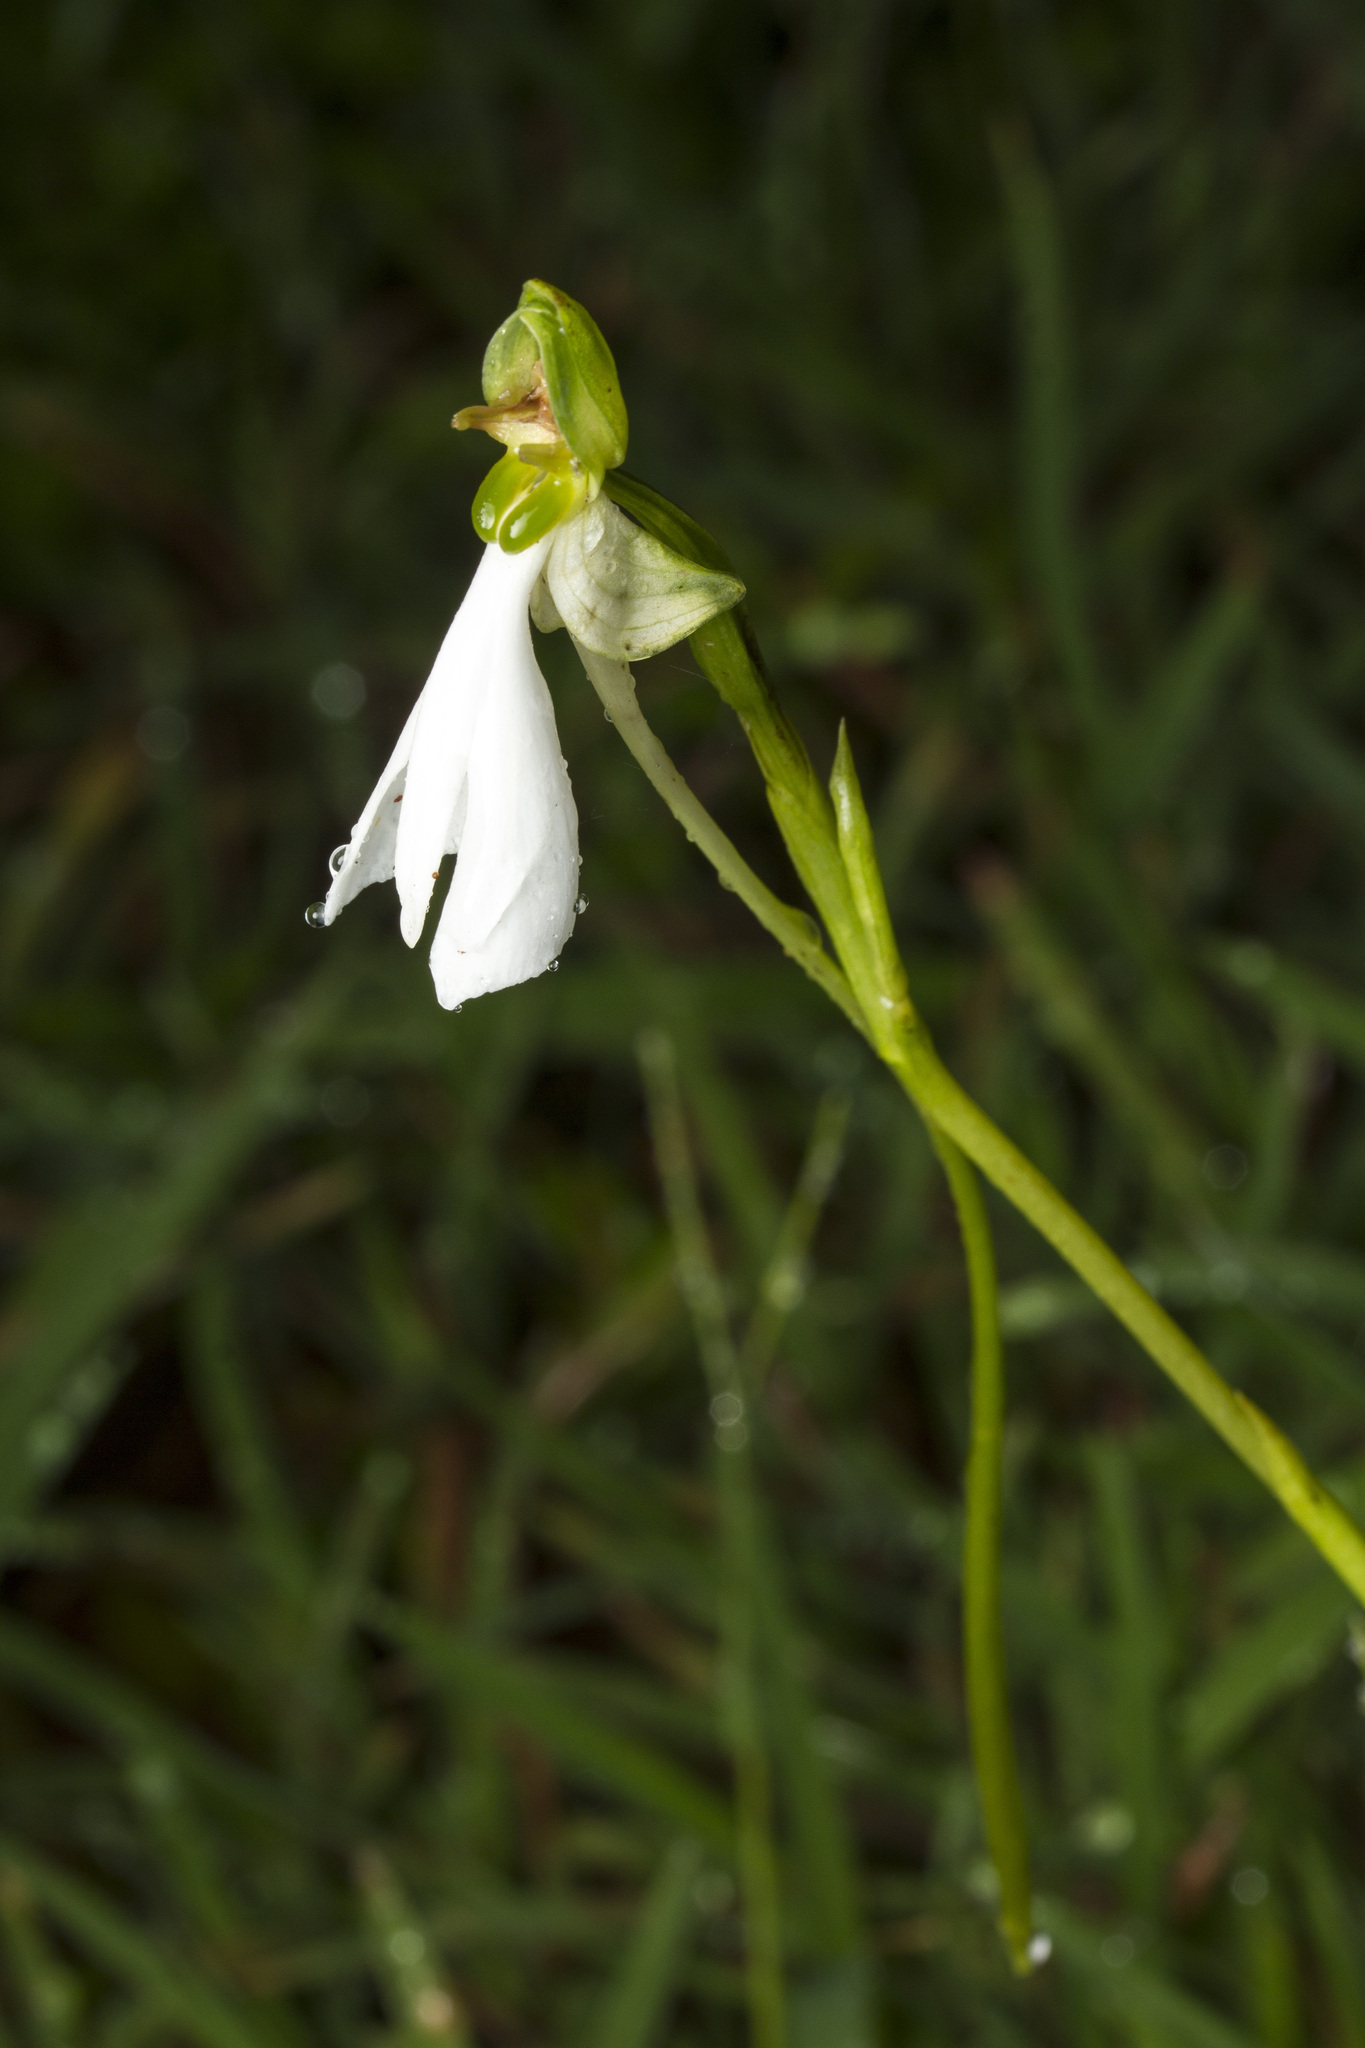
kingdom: Plantae
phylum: Tracheophyta
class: Liliopsida
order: Asparagales
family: Orchidaceae
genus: Habenaria
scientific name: Habenaria longicorniculata
